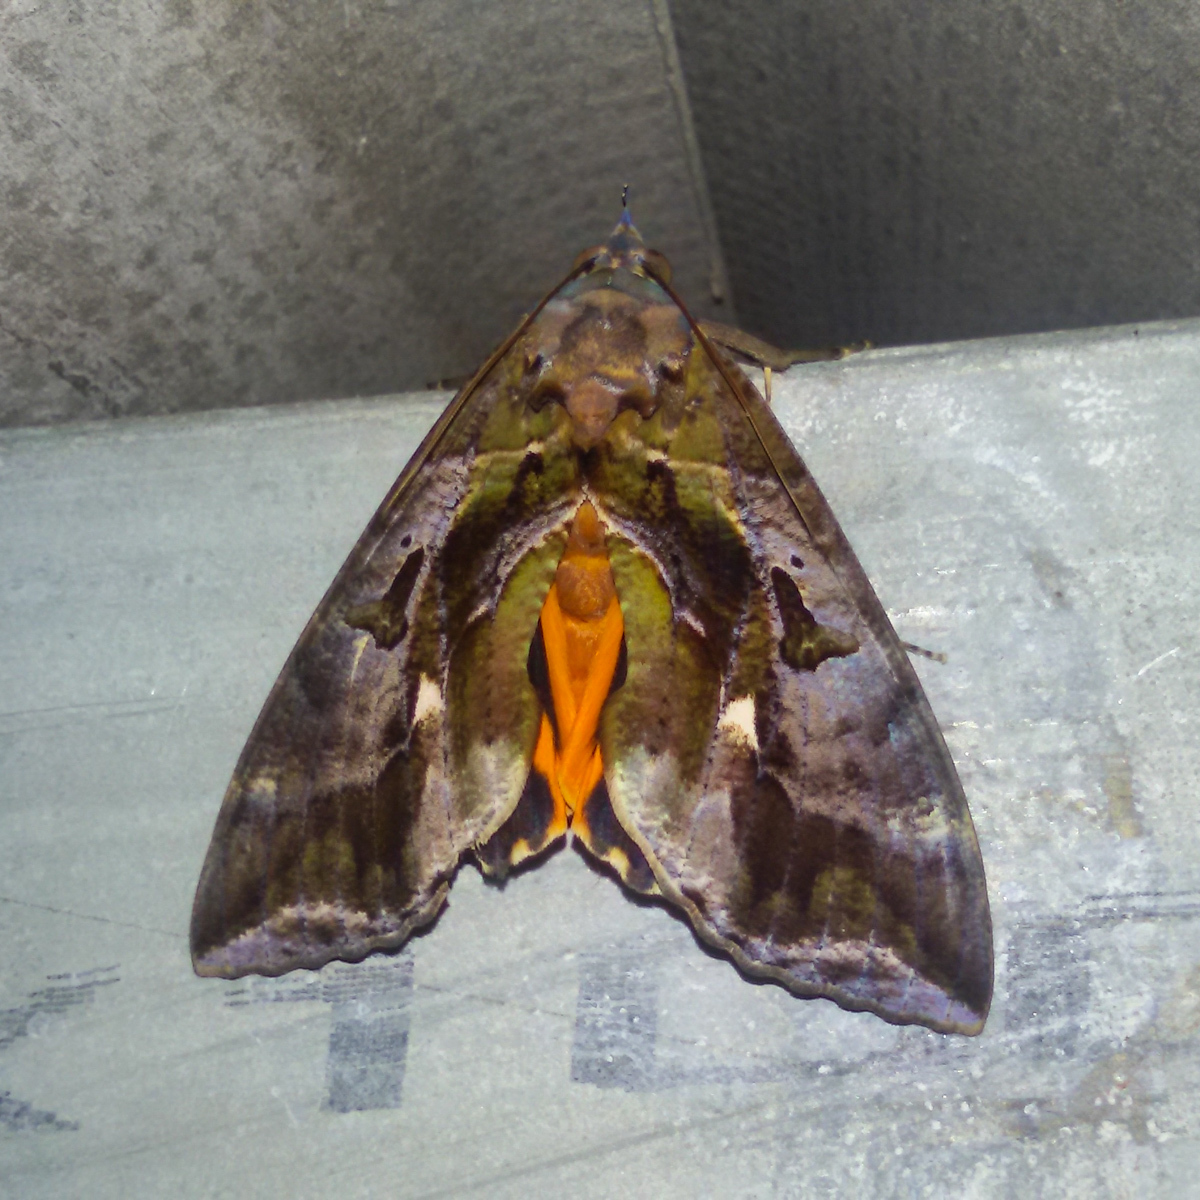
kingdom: Animalia
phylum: Arthropoda
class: Insecta
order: Lepidoptera
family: Erebidae
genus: Eudocima
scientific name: Eudocima phalonia
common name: Wasp
